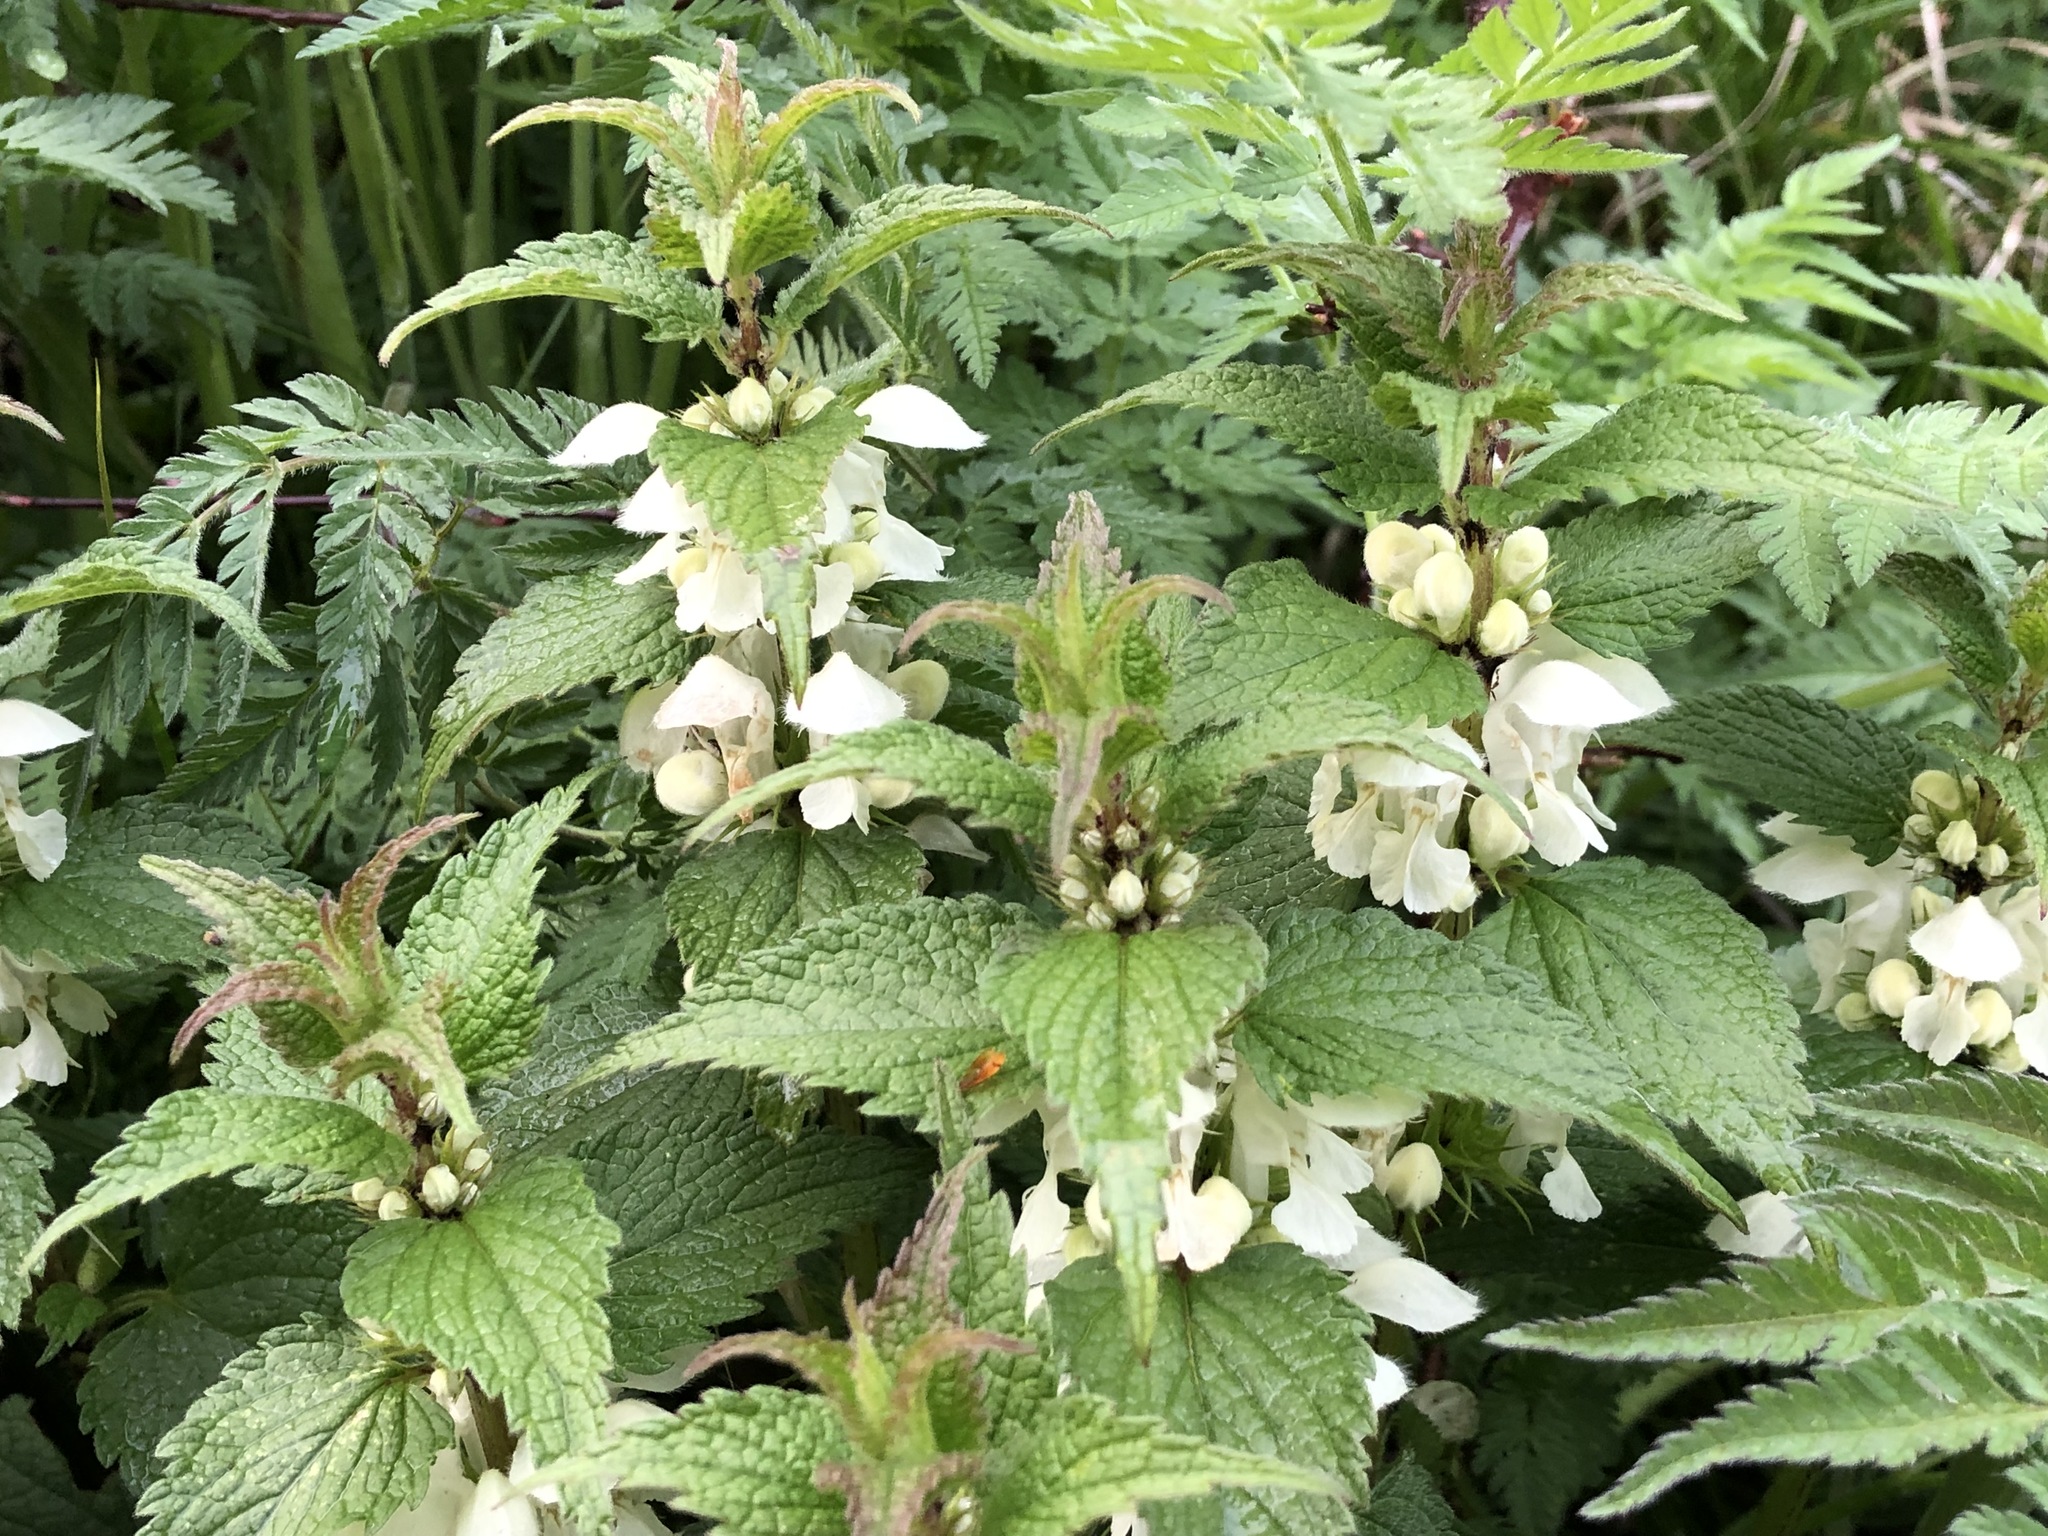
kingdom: Plantae
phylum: Tracheophyta
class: Magnoliopsida
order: Lamiales
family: Lamiaceae
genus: Lamium
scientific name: Lamium album
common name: White dead-nettle
